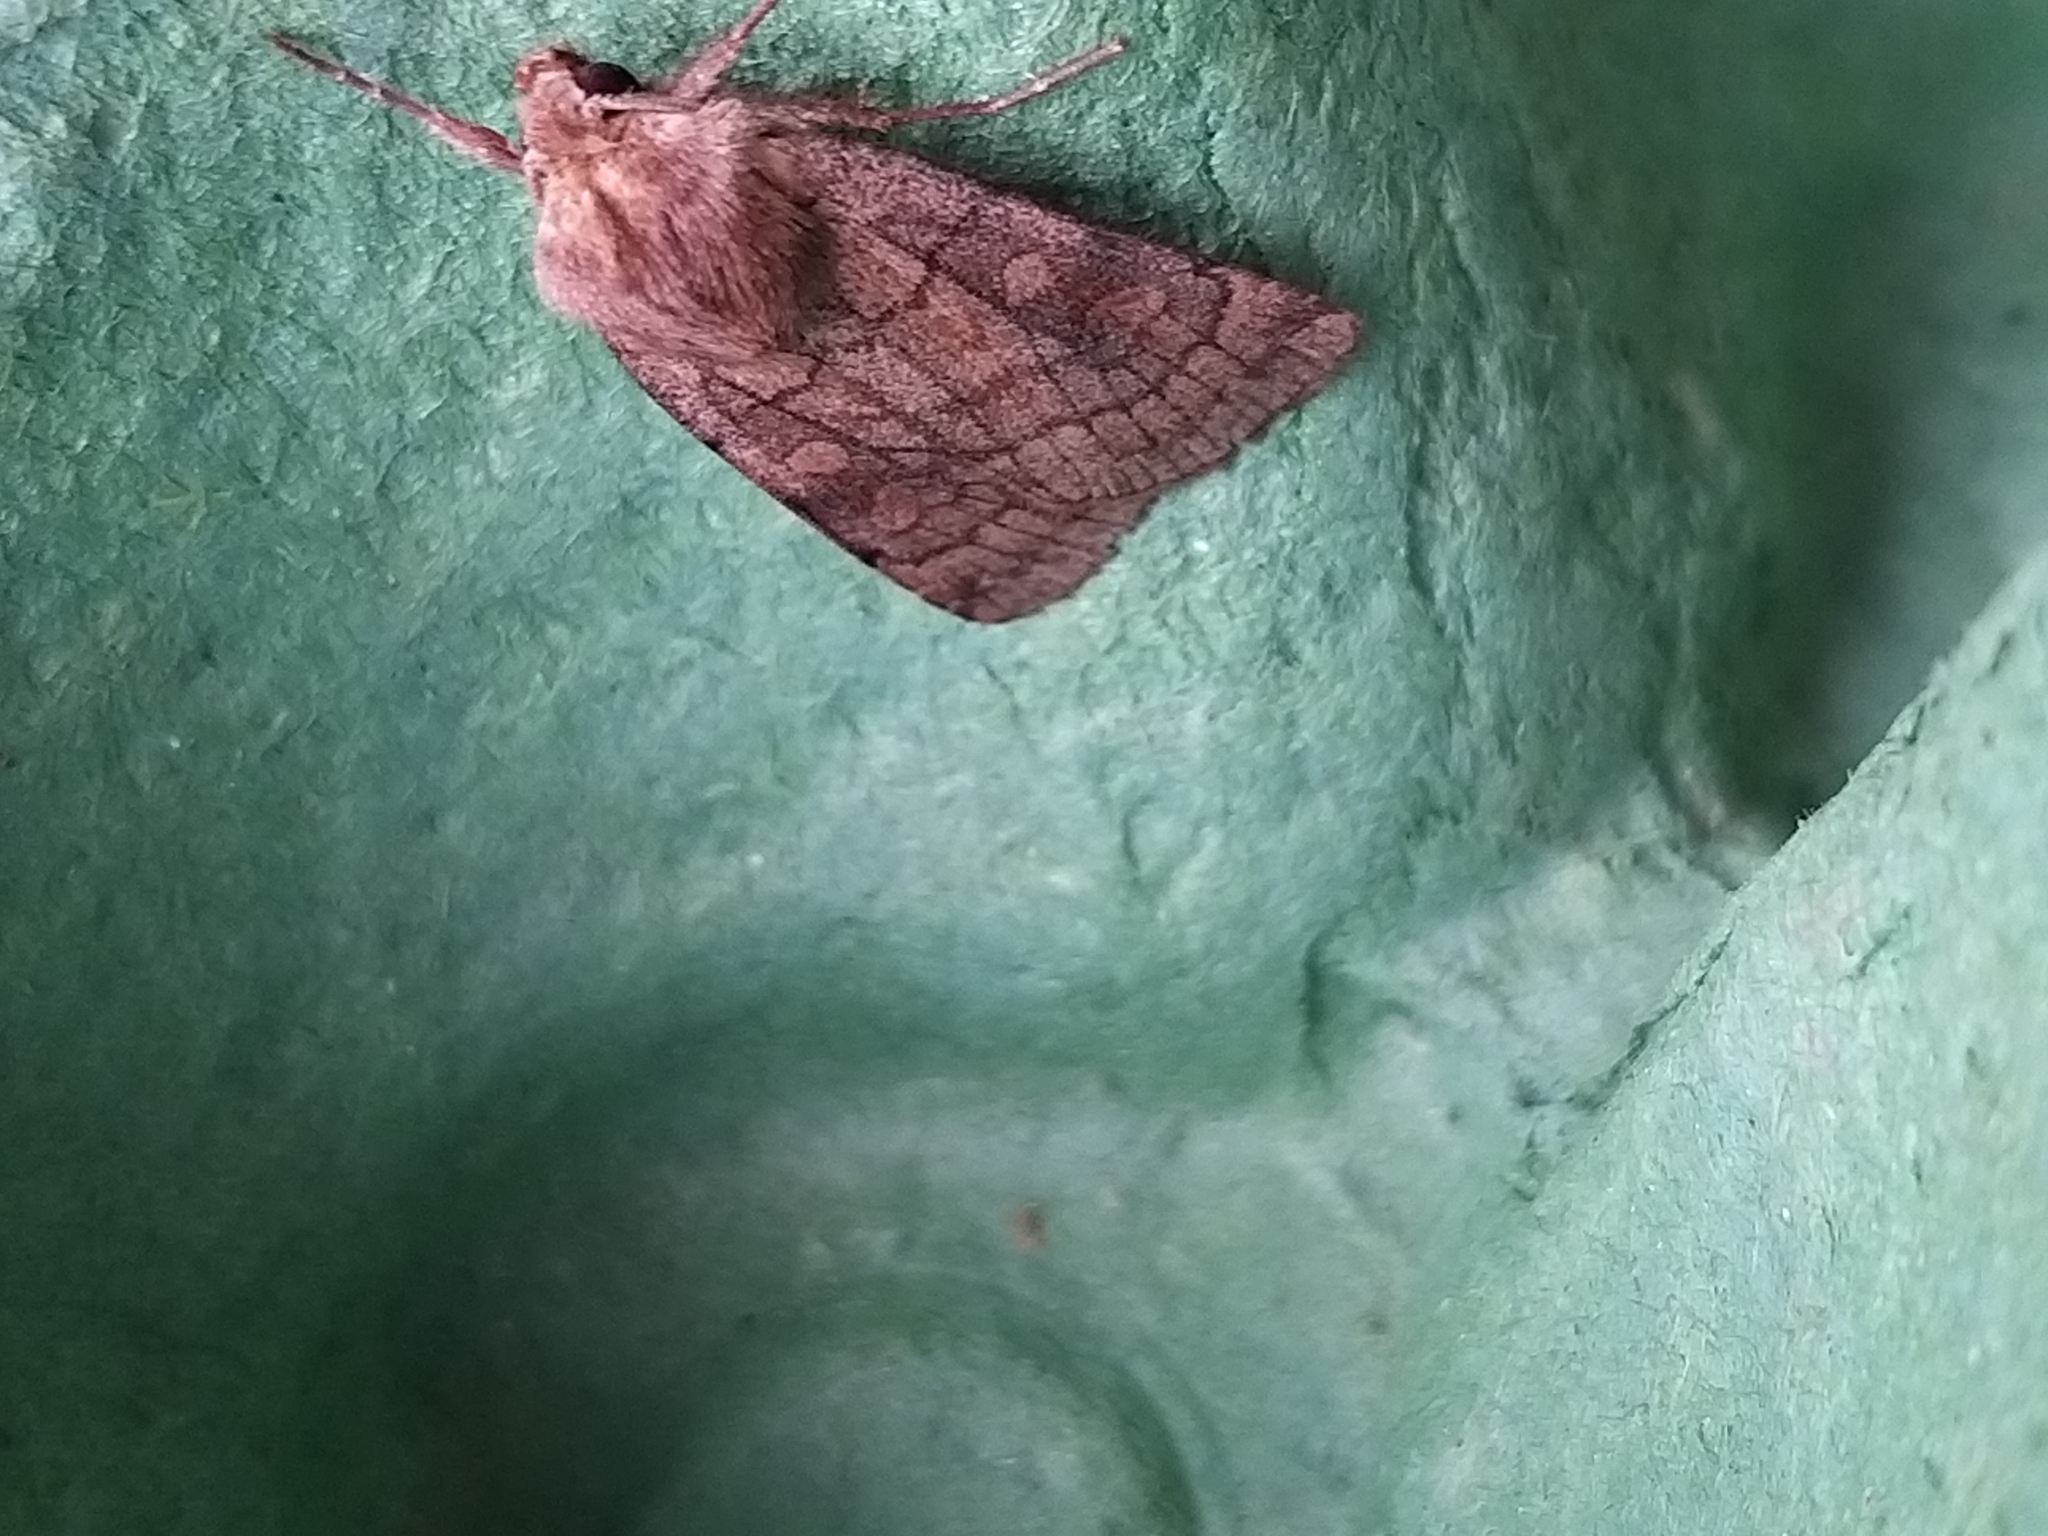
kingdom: Animalia
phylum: Arthropoda
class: Insecta
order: Lepidoptera
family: Noctuidae
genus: Xestia
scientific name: Xestia sexstrigata
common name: Six-striped rustic
